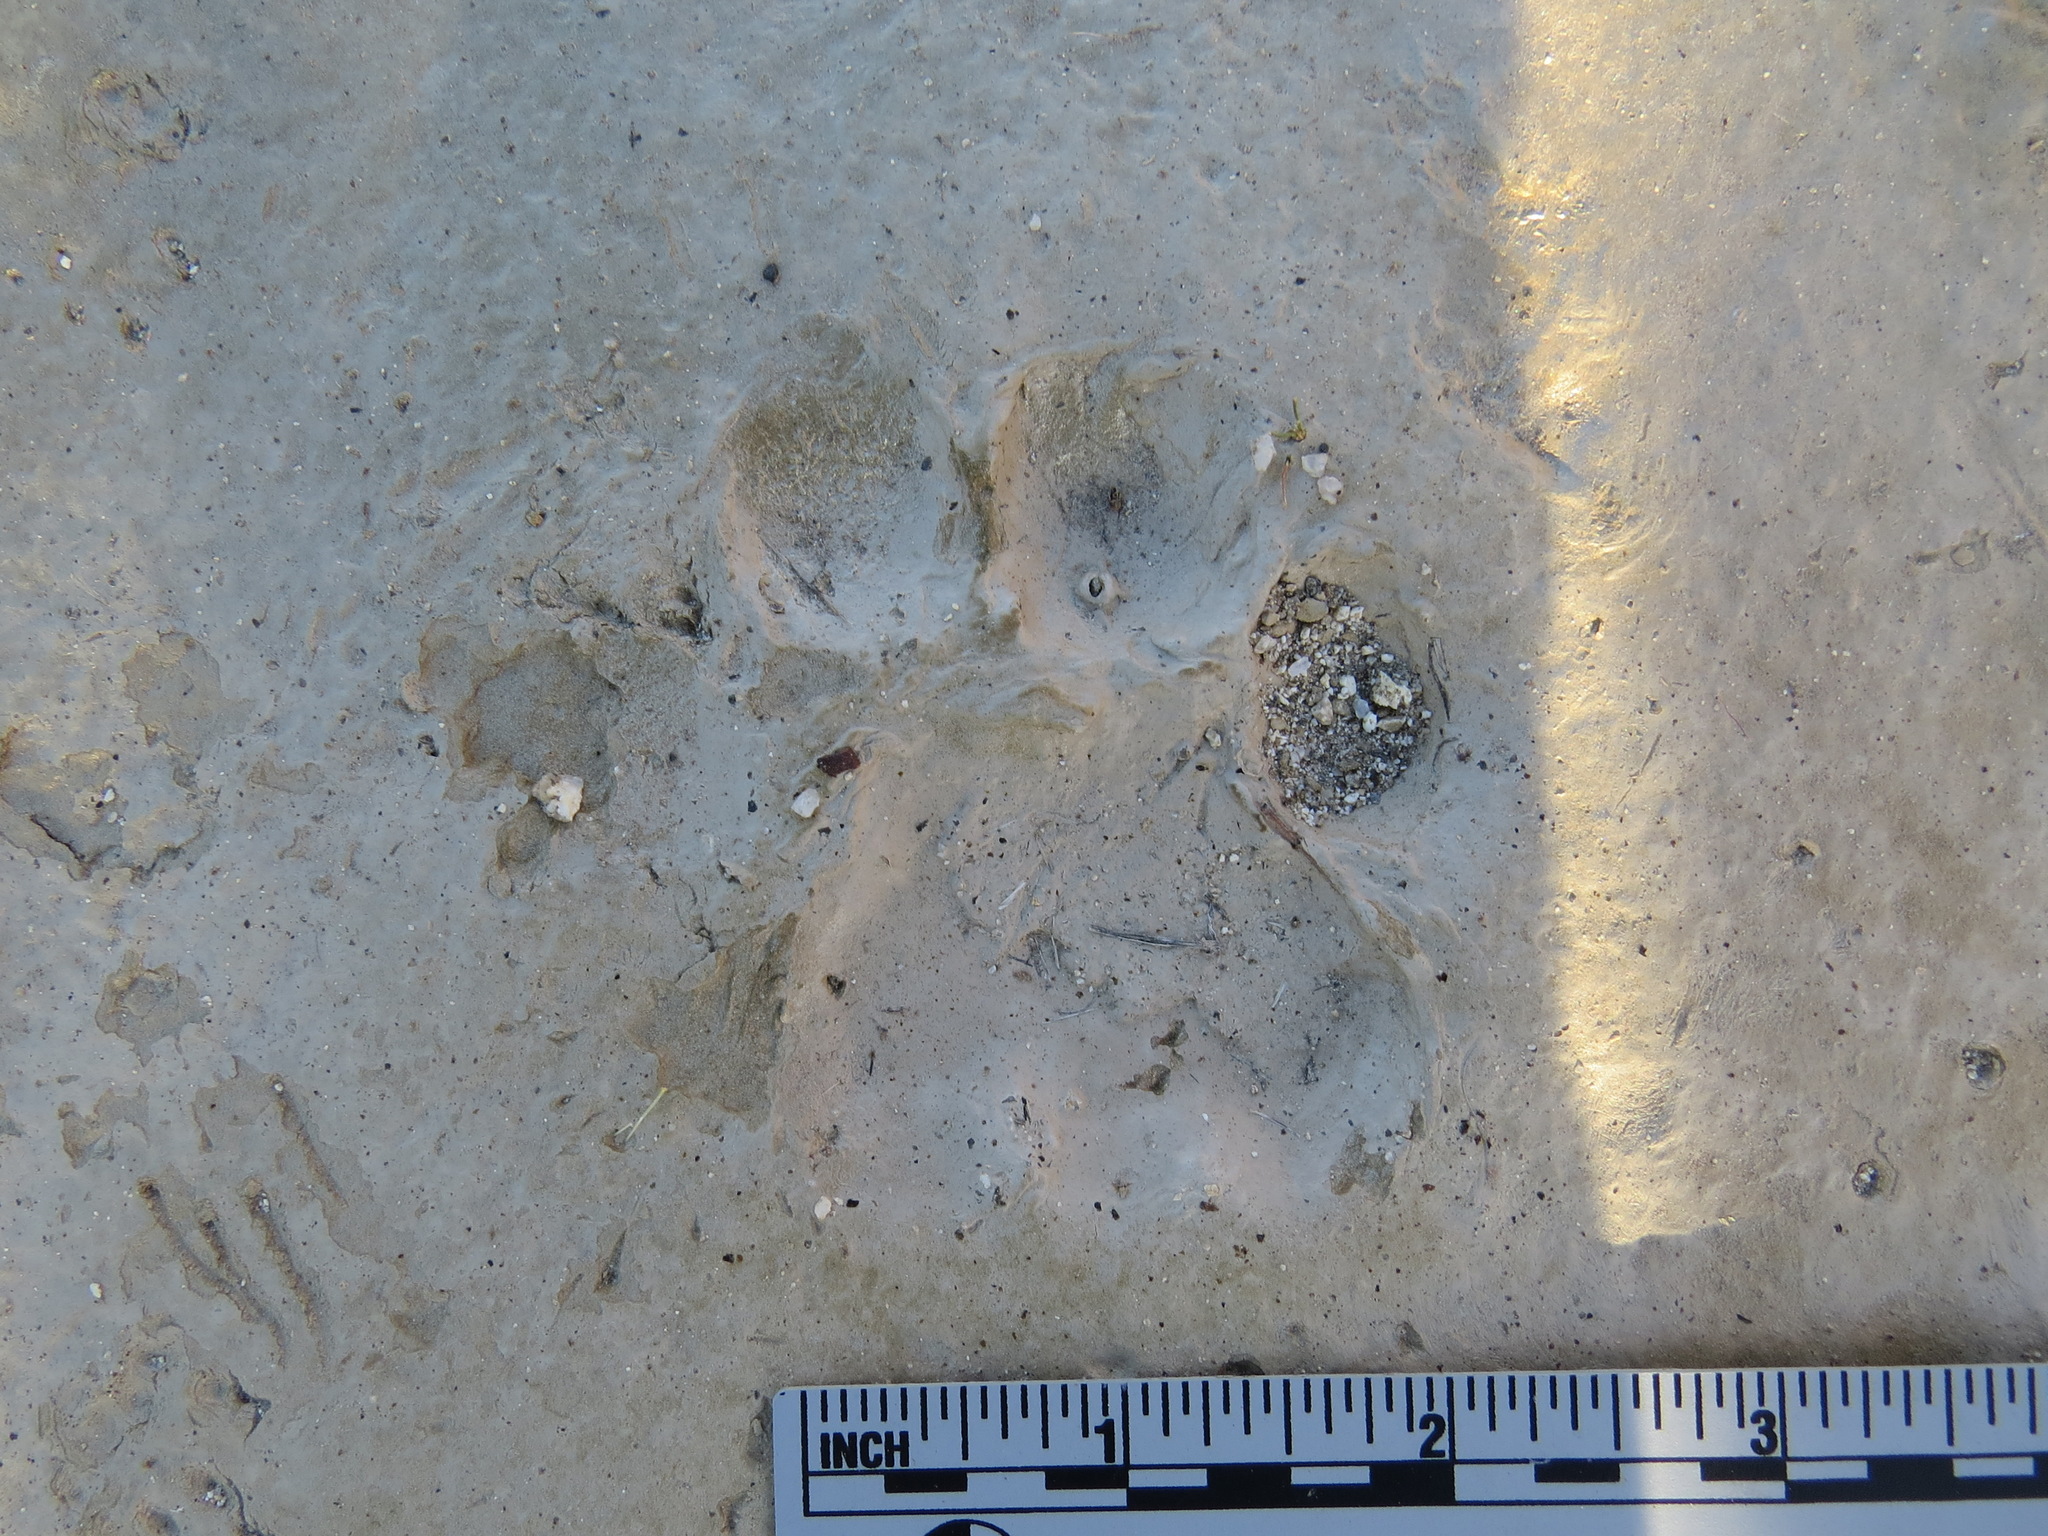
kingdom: Animalia
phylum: Chordata
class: Mammalia
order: Carnivora
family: Felidae
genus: Puma
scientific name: Puma concolor
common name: Puma
